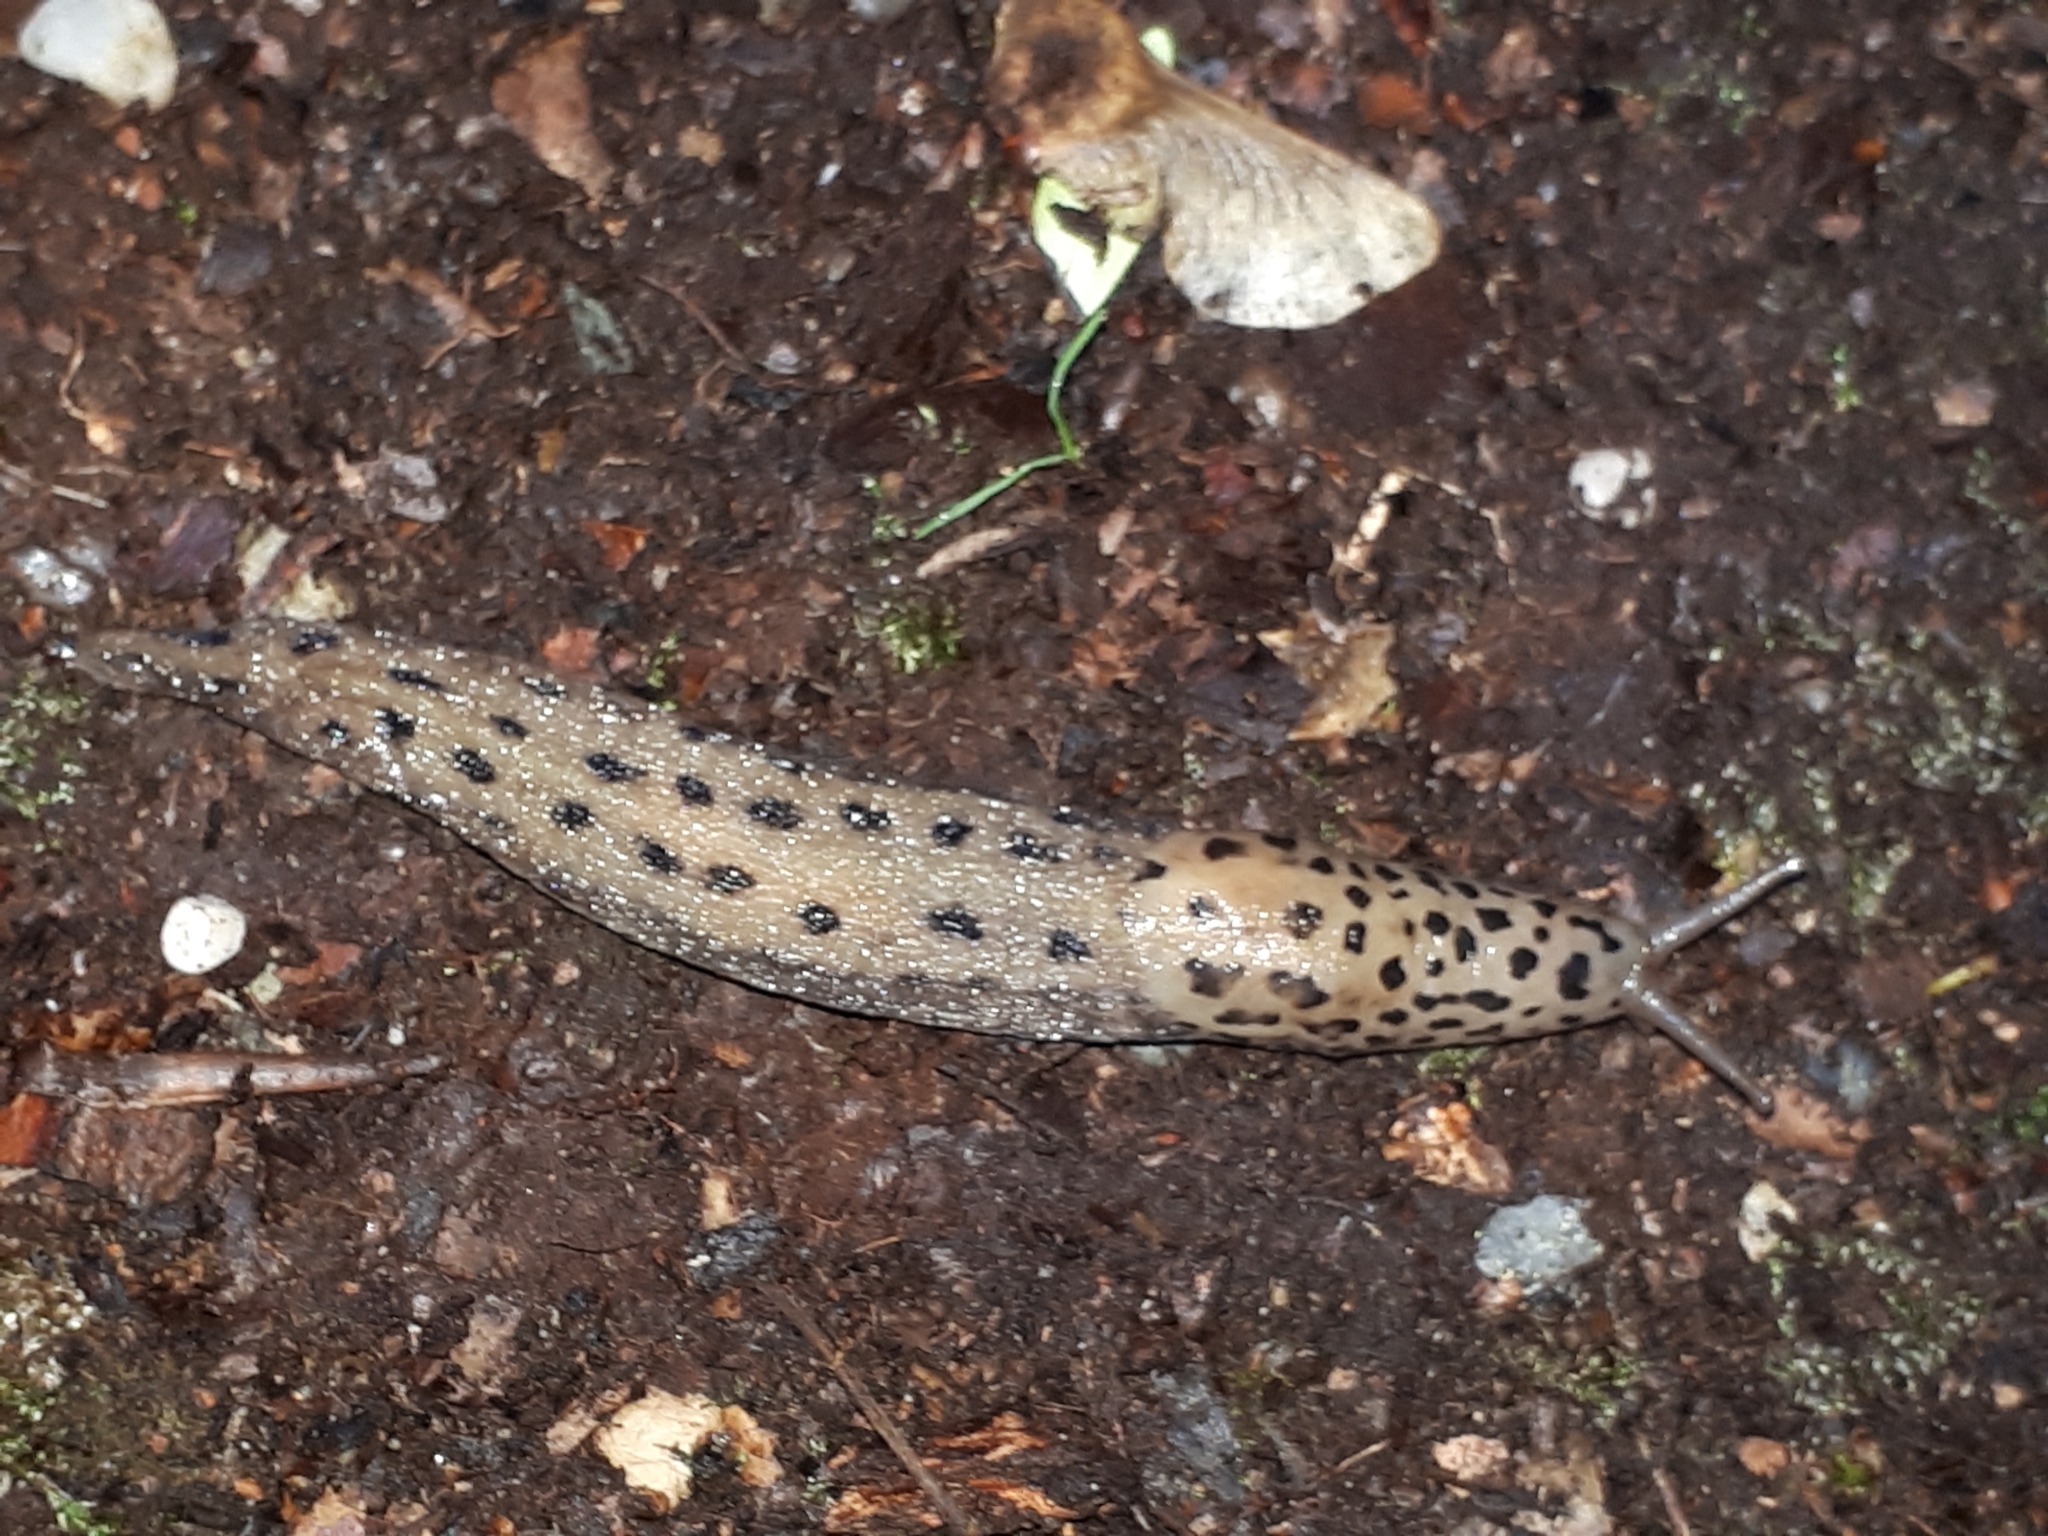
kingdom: Animalia
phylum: Mollusca
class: Gastropoda
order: Stylommatophora
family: Limacidae
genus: Limax
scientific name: Limax maximus
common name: Great grey slug
